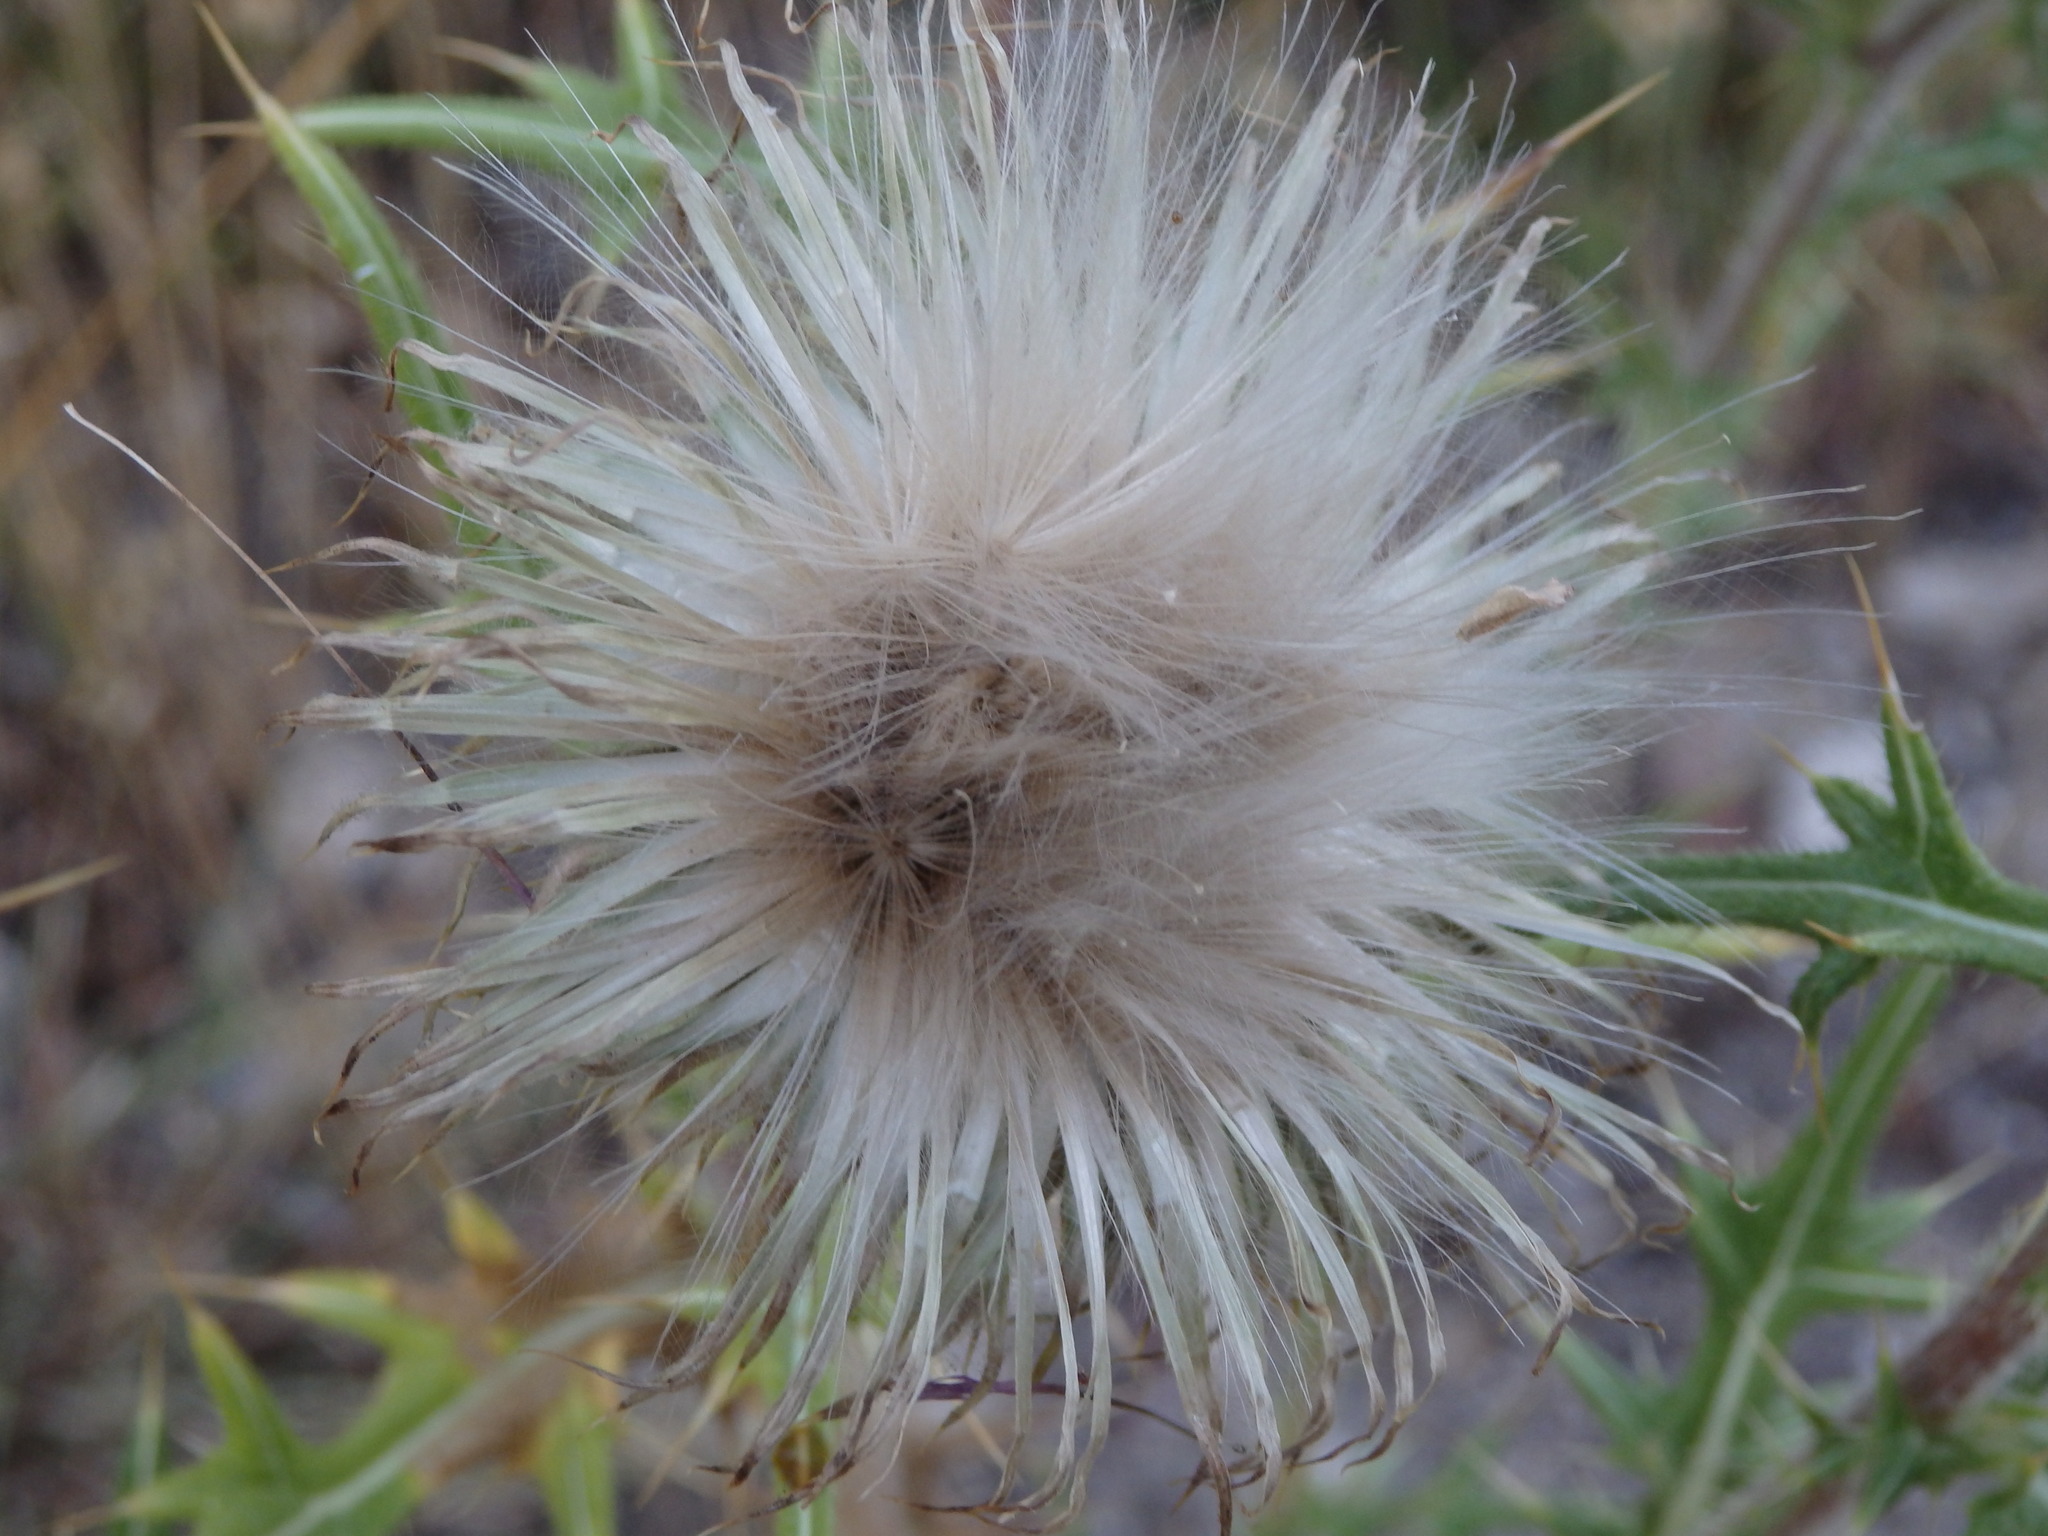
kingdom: Plantae
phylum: Tracheophyta
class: Magnoliopsida
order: Asterales
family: Asteraceae
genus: Cirsium
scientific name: Cirsium vulgare
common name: Bull thistle
